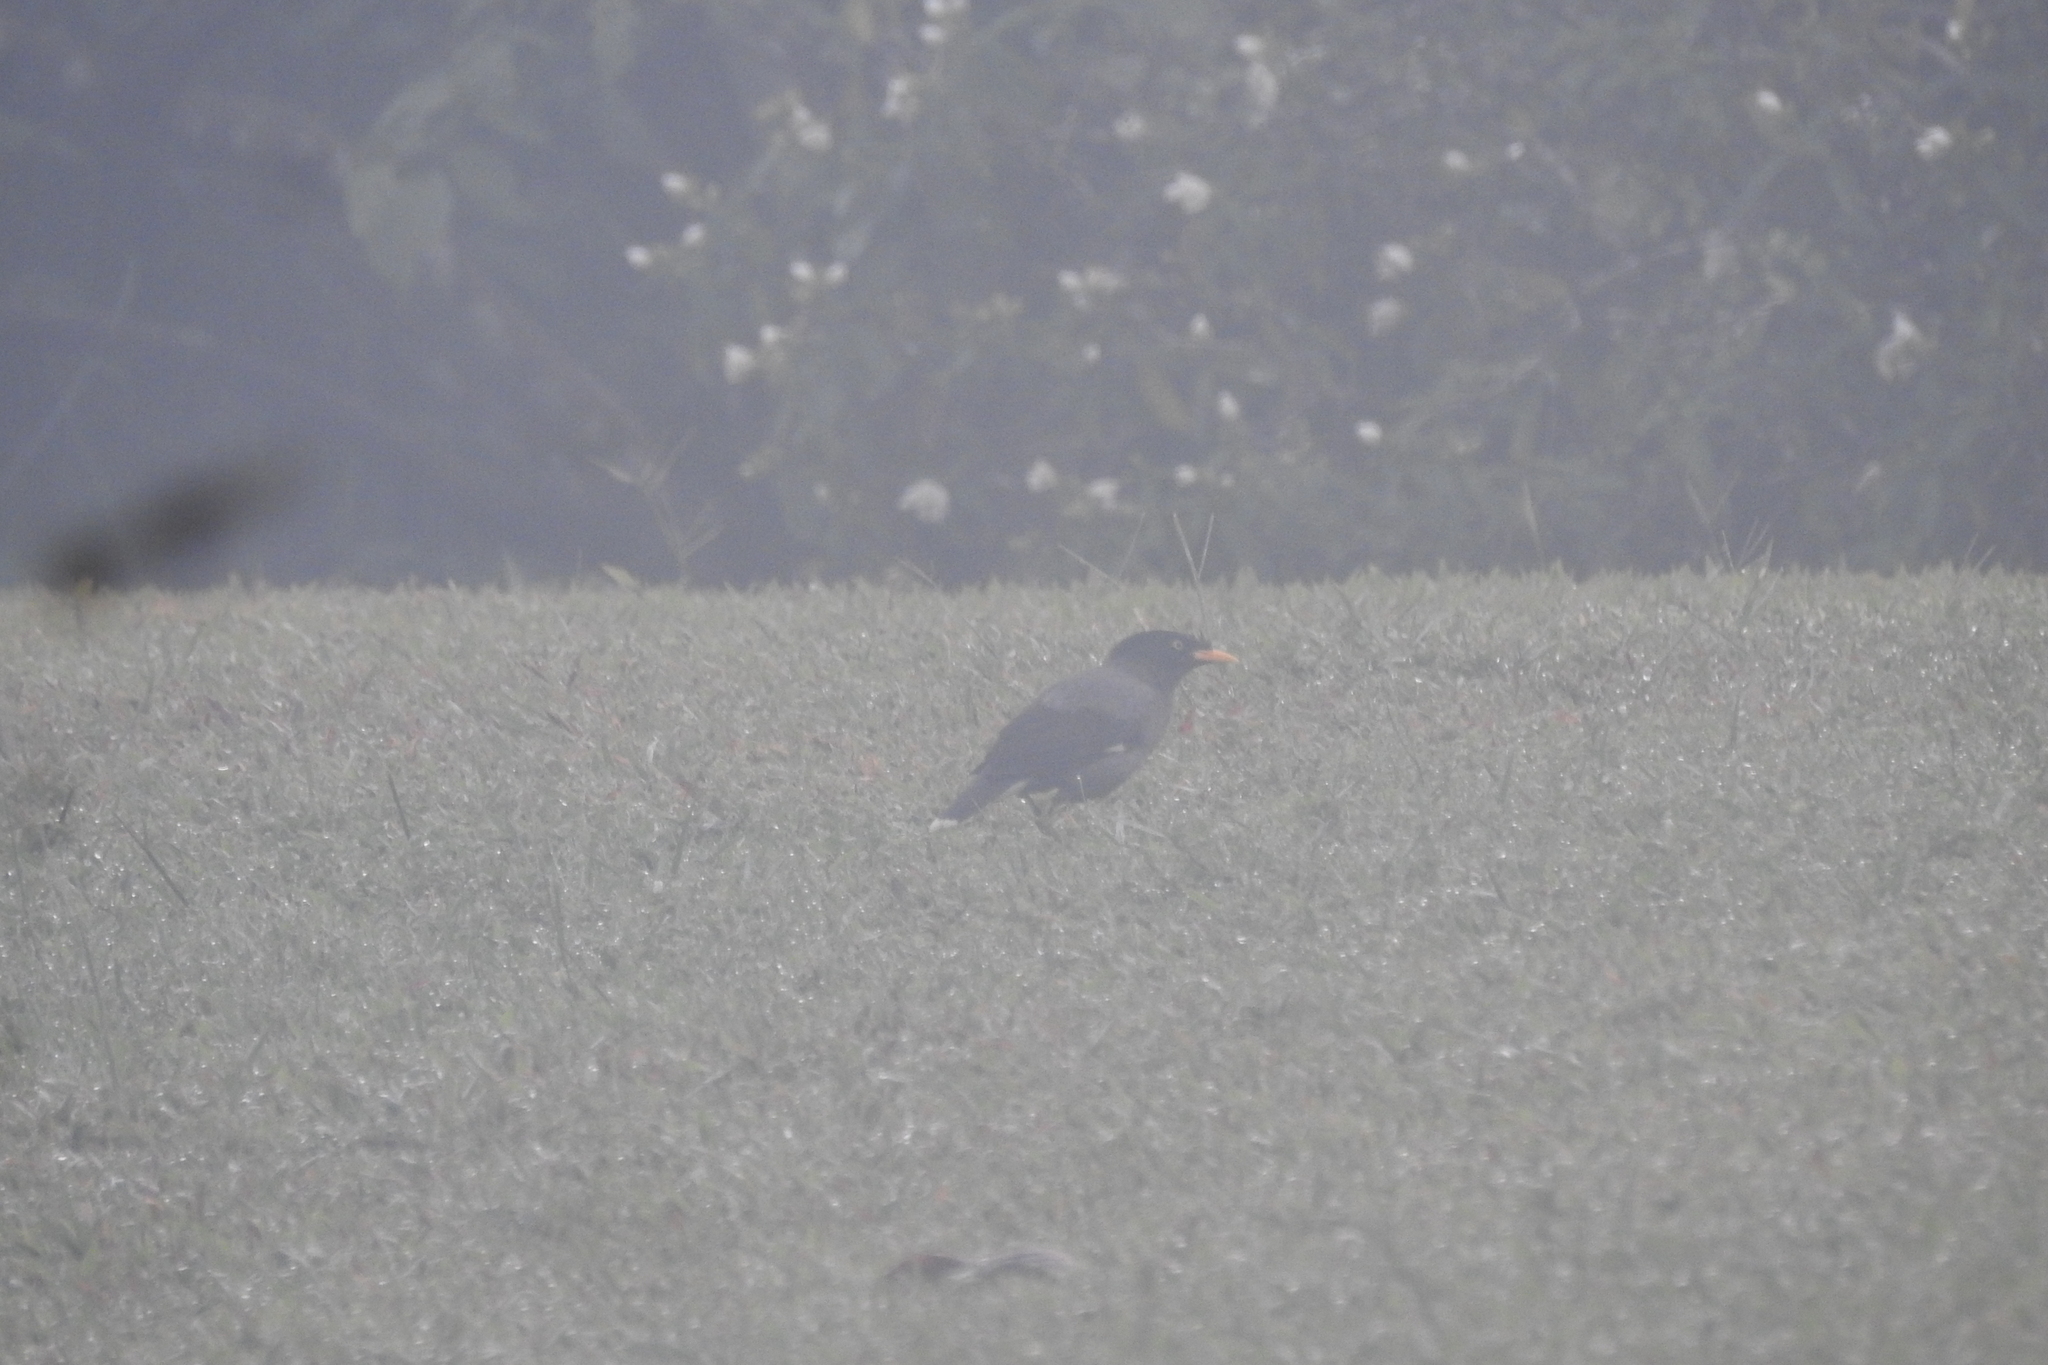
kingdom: Animalia
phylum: Chordata
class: Aves
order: Passeriformes
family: Sturnidae
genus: Acridotheres
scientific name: Acridotheres javanicus
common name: Javan myna
